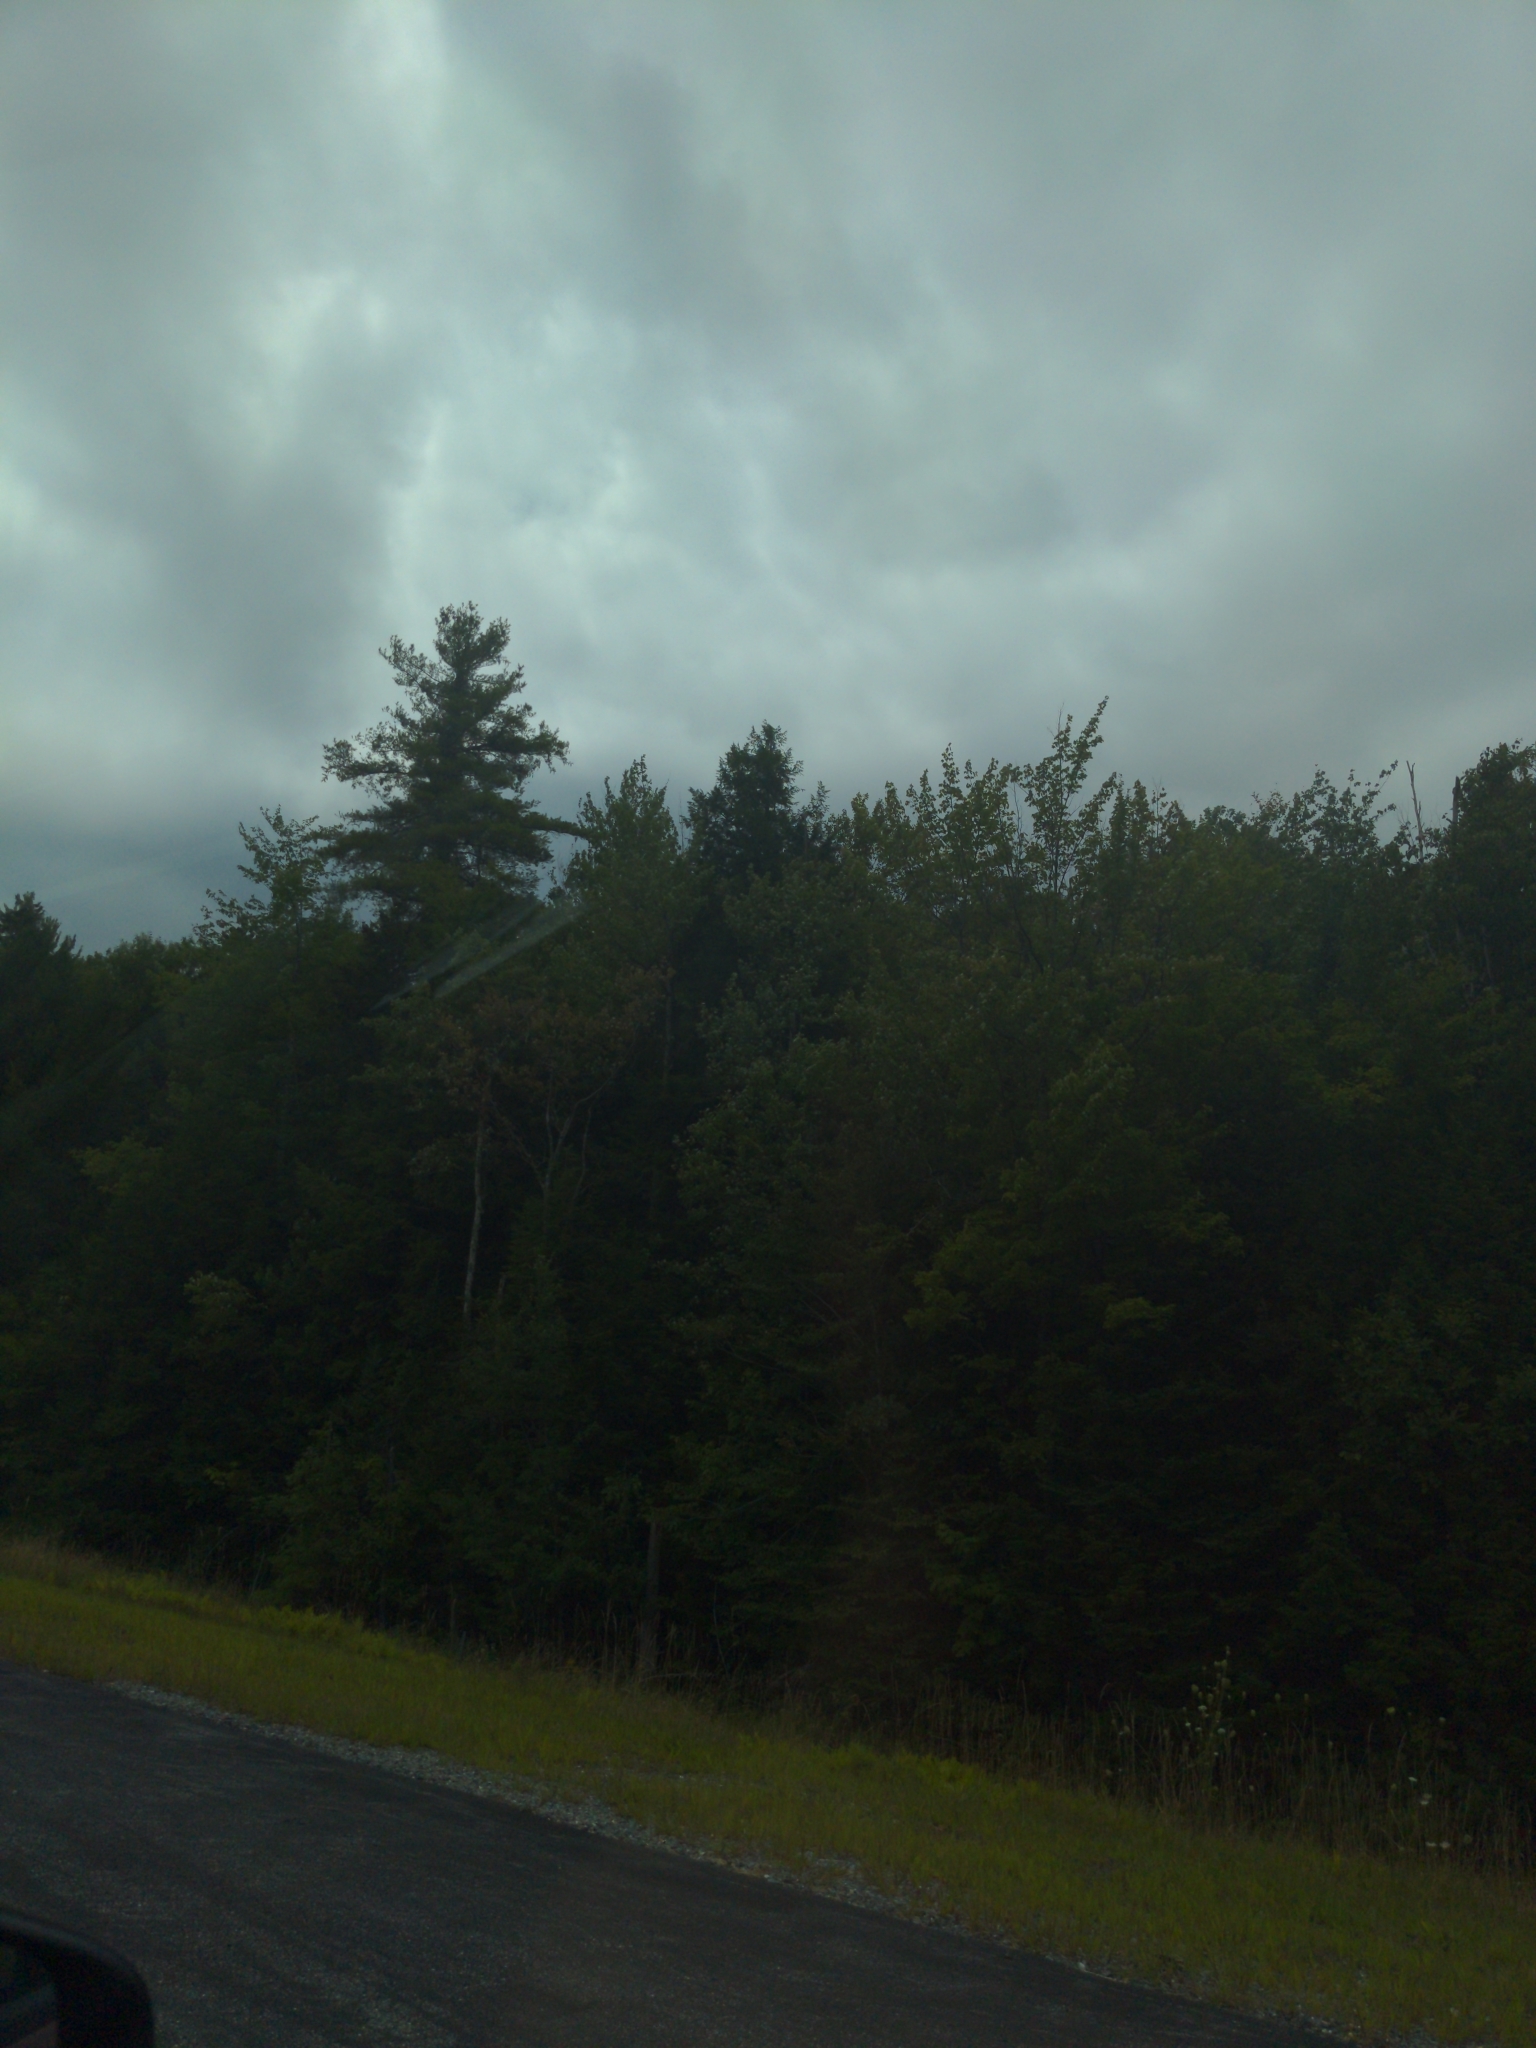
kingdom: Plantae
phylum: Tracheophyta
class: Pinopsida
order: Pinales
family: Pinaceae
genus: Pinus
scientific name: Pinus strobus
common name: Weymouth pine
